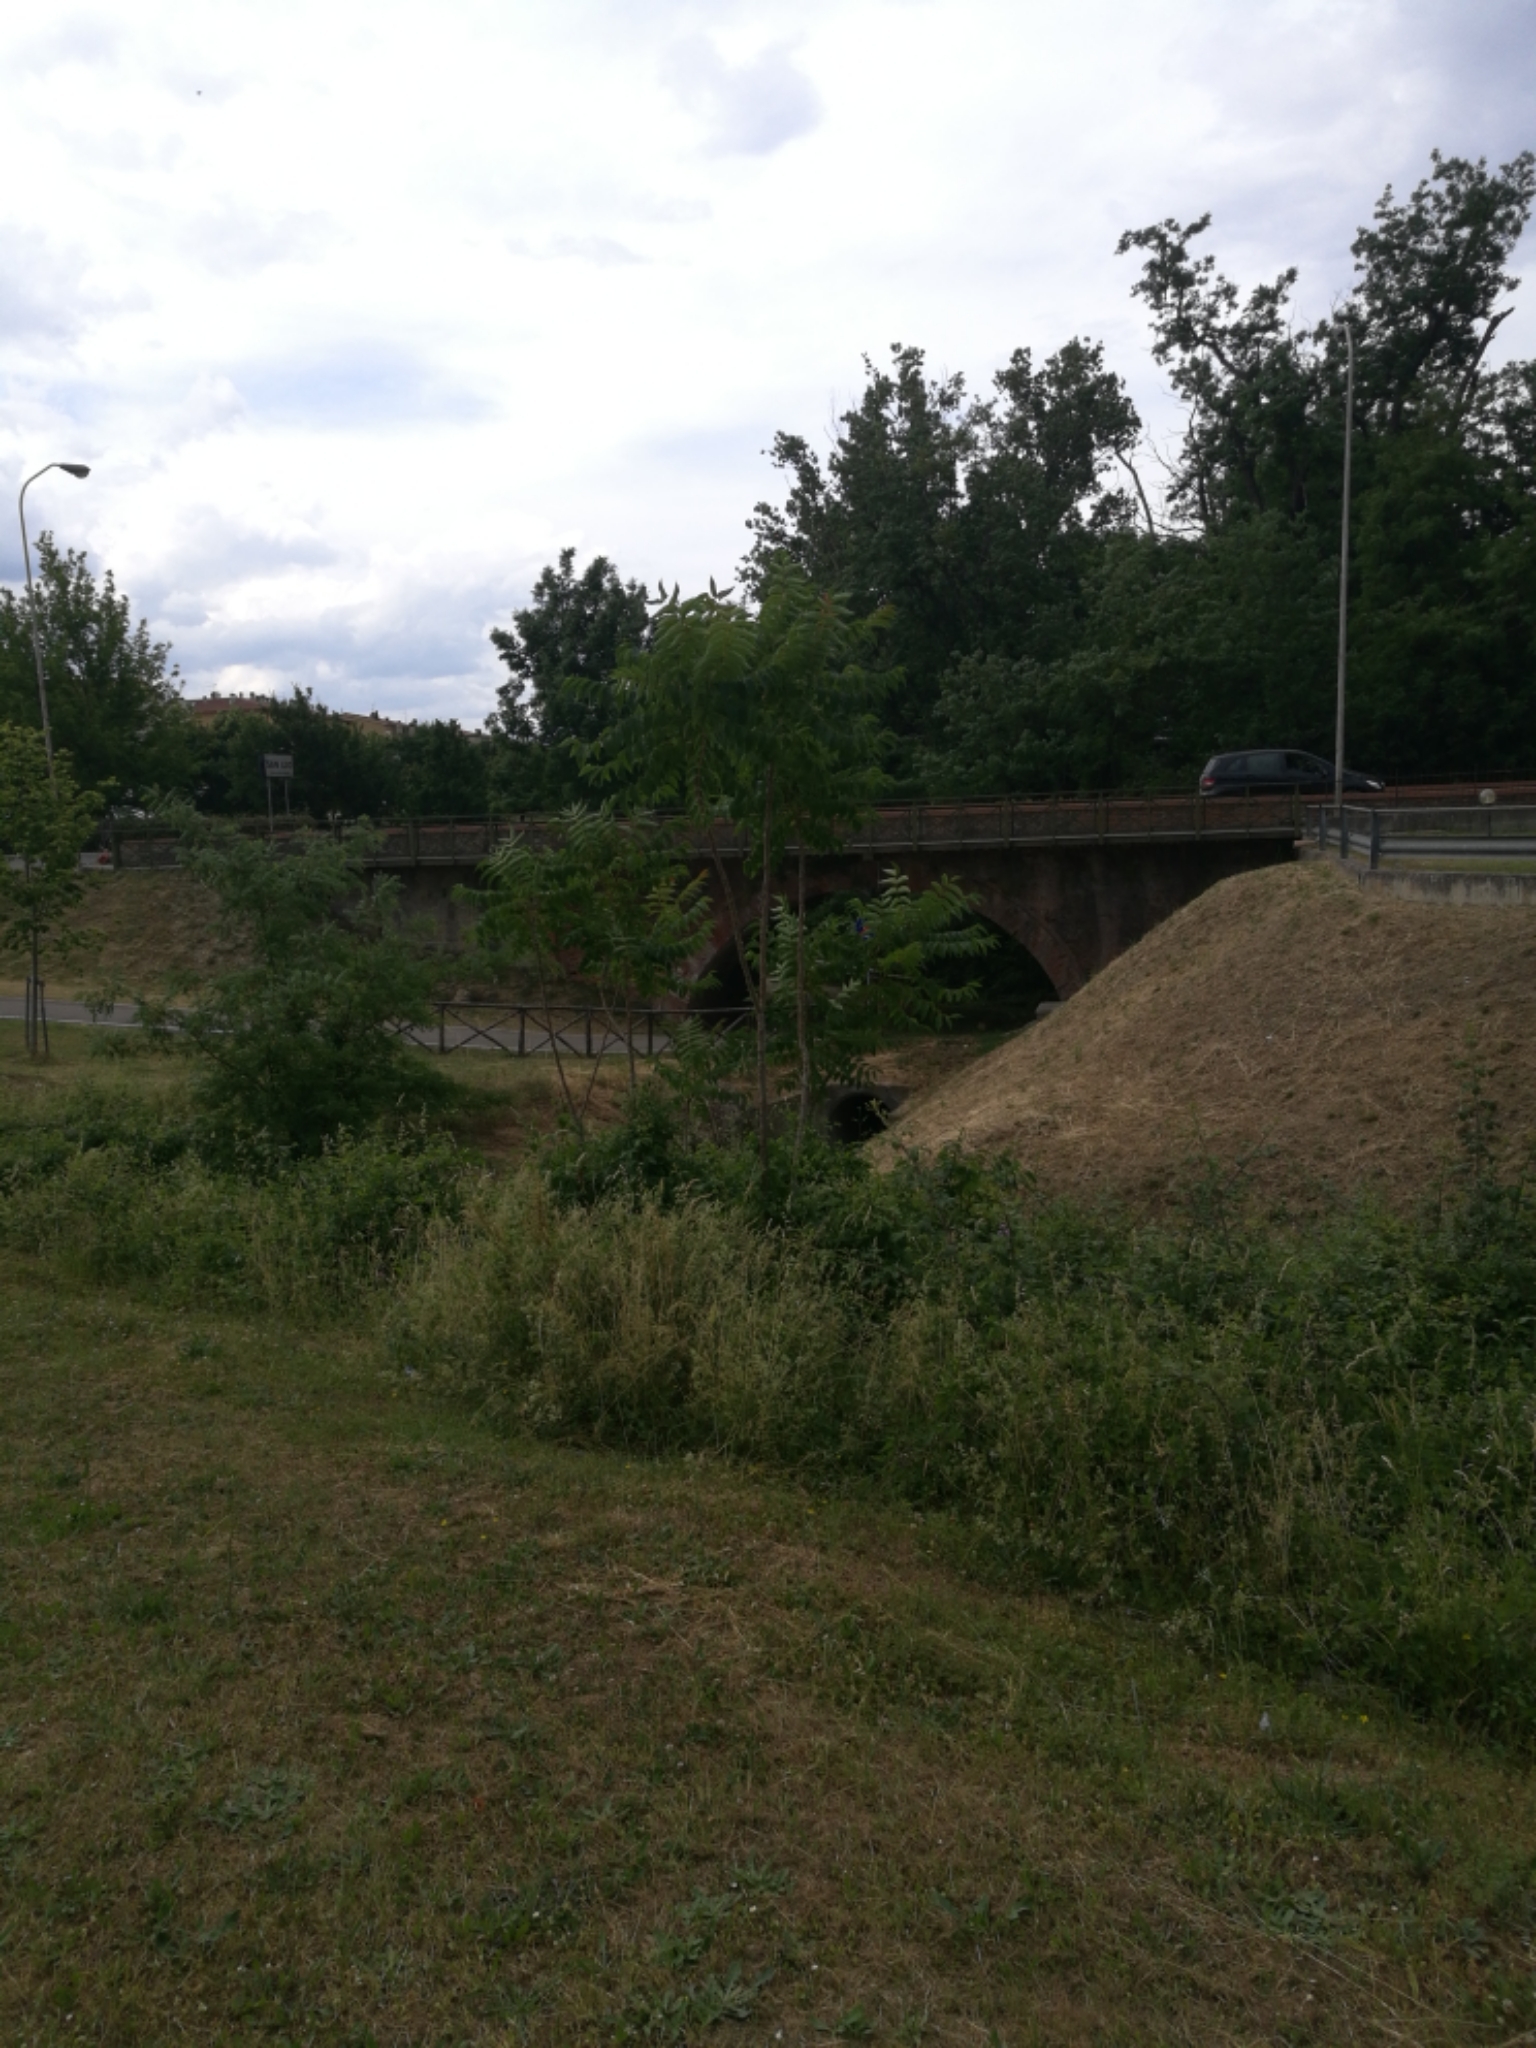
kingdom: Plantae
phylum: Tracheophyta
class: Magnoliopsida
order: Sapindales
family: Simaroubaceae
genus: Ailanthus
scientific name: Ailanthus altissima
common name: Tree-of-heaven
